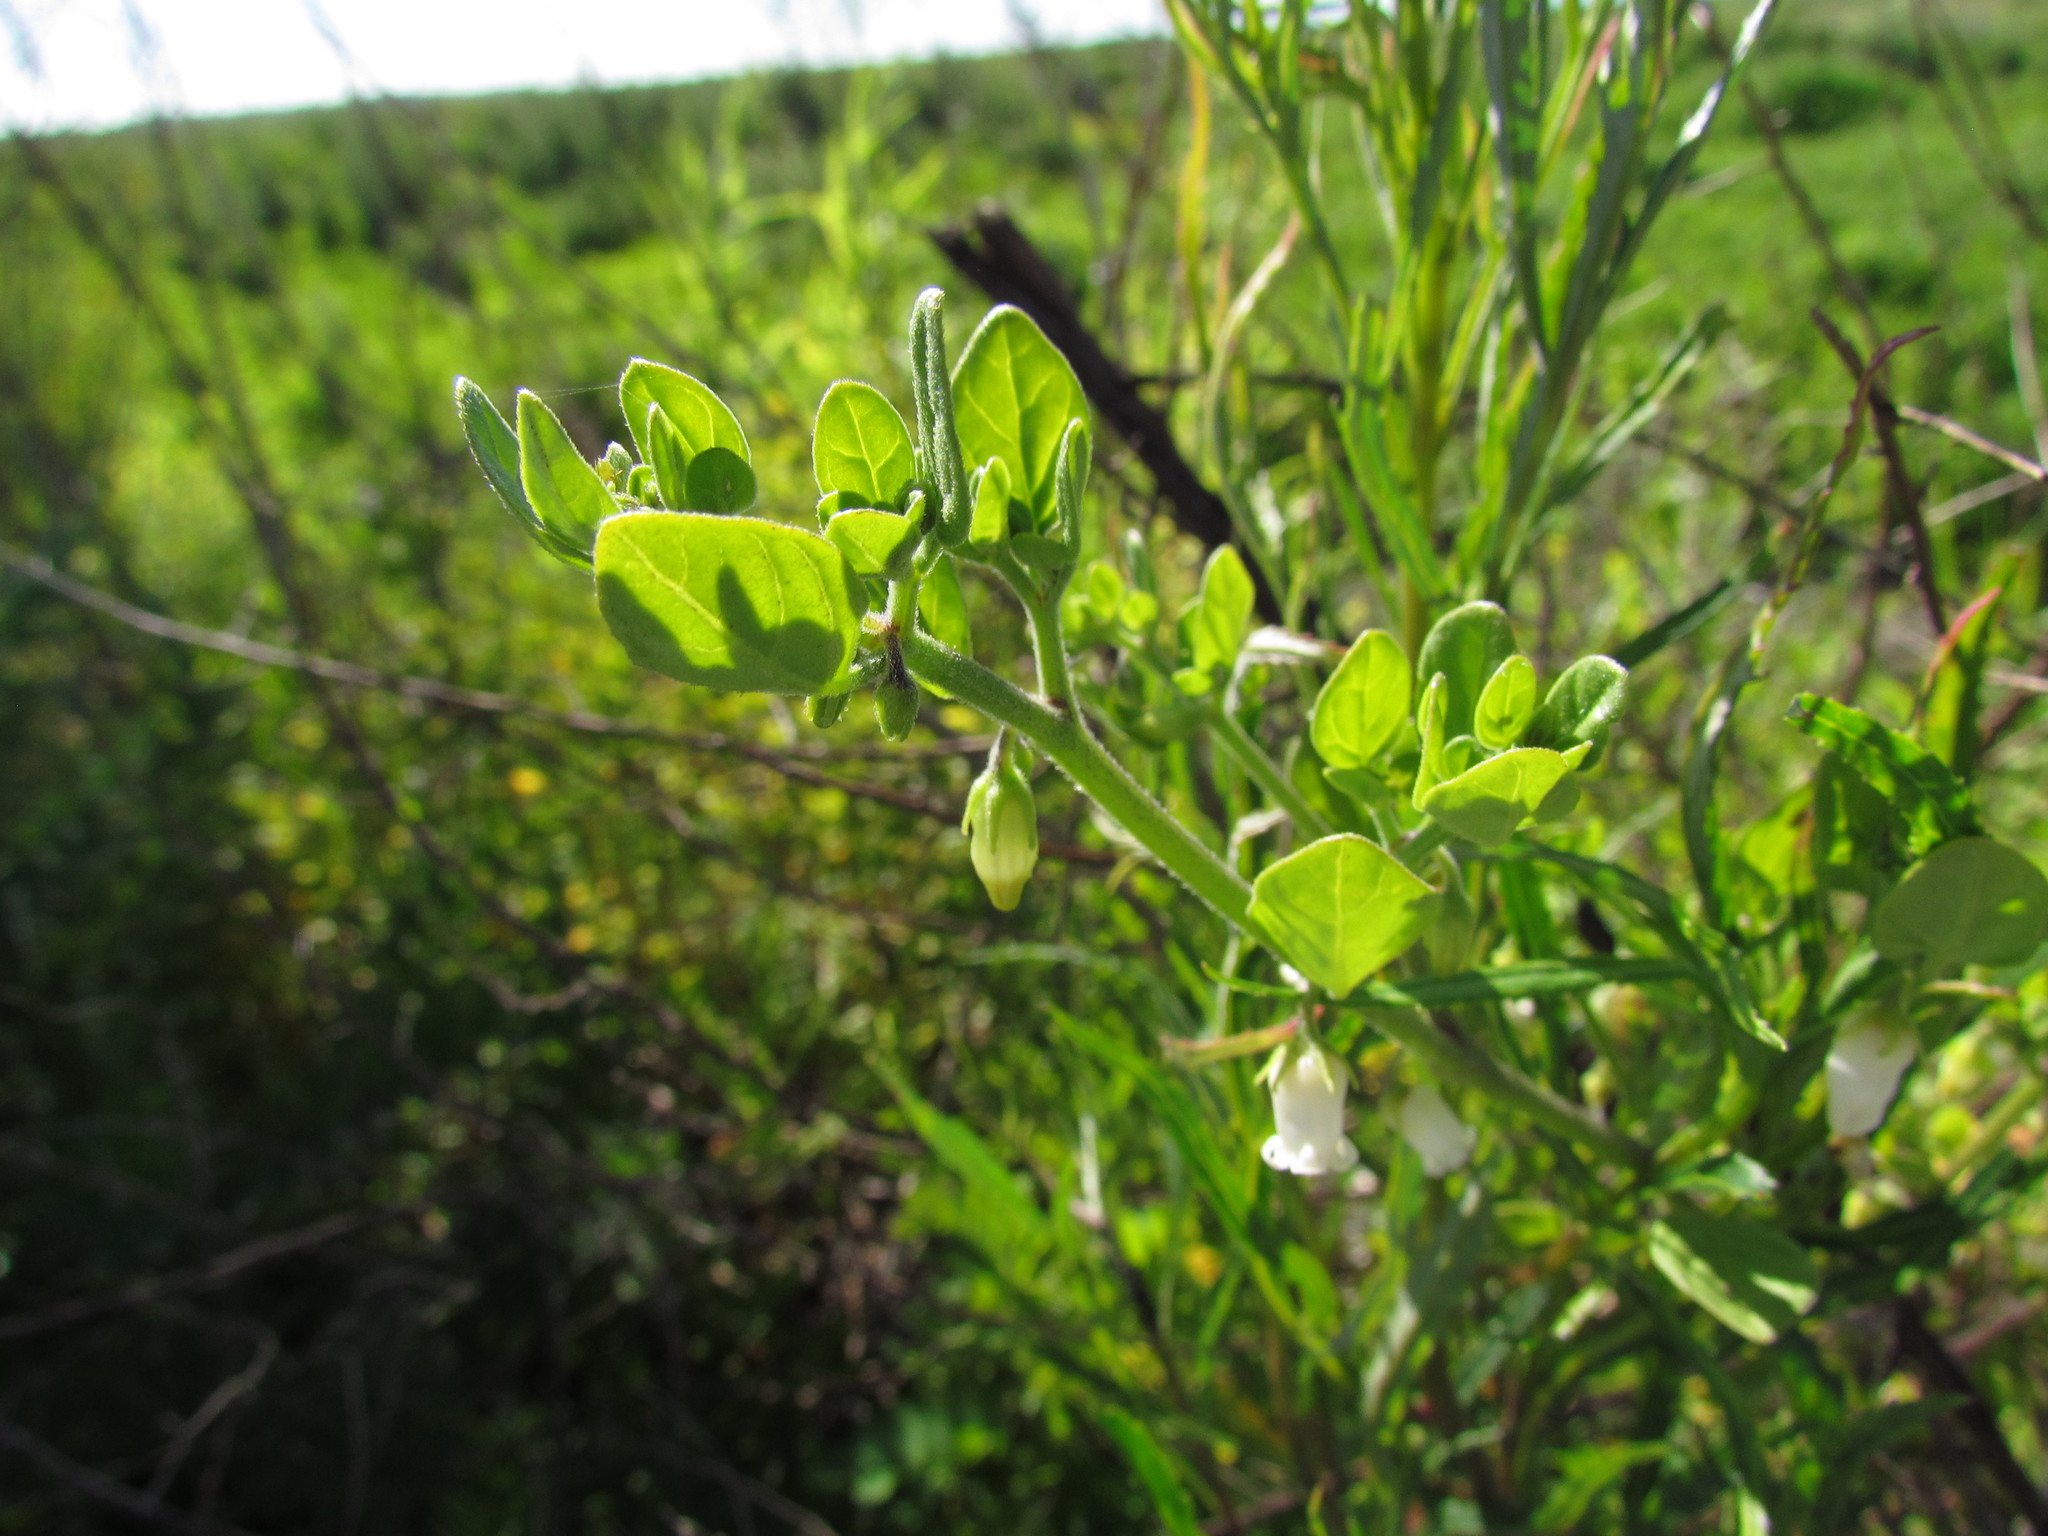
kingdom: Plantae
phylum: Tracheophyta
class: Magnoliopsida
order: Solanales
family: Solanaceae
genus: Salpichroa
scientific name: Salpichroa origanifolia
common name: Lily-of-the-valley-vine
